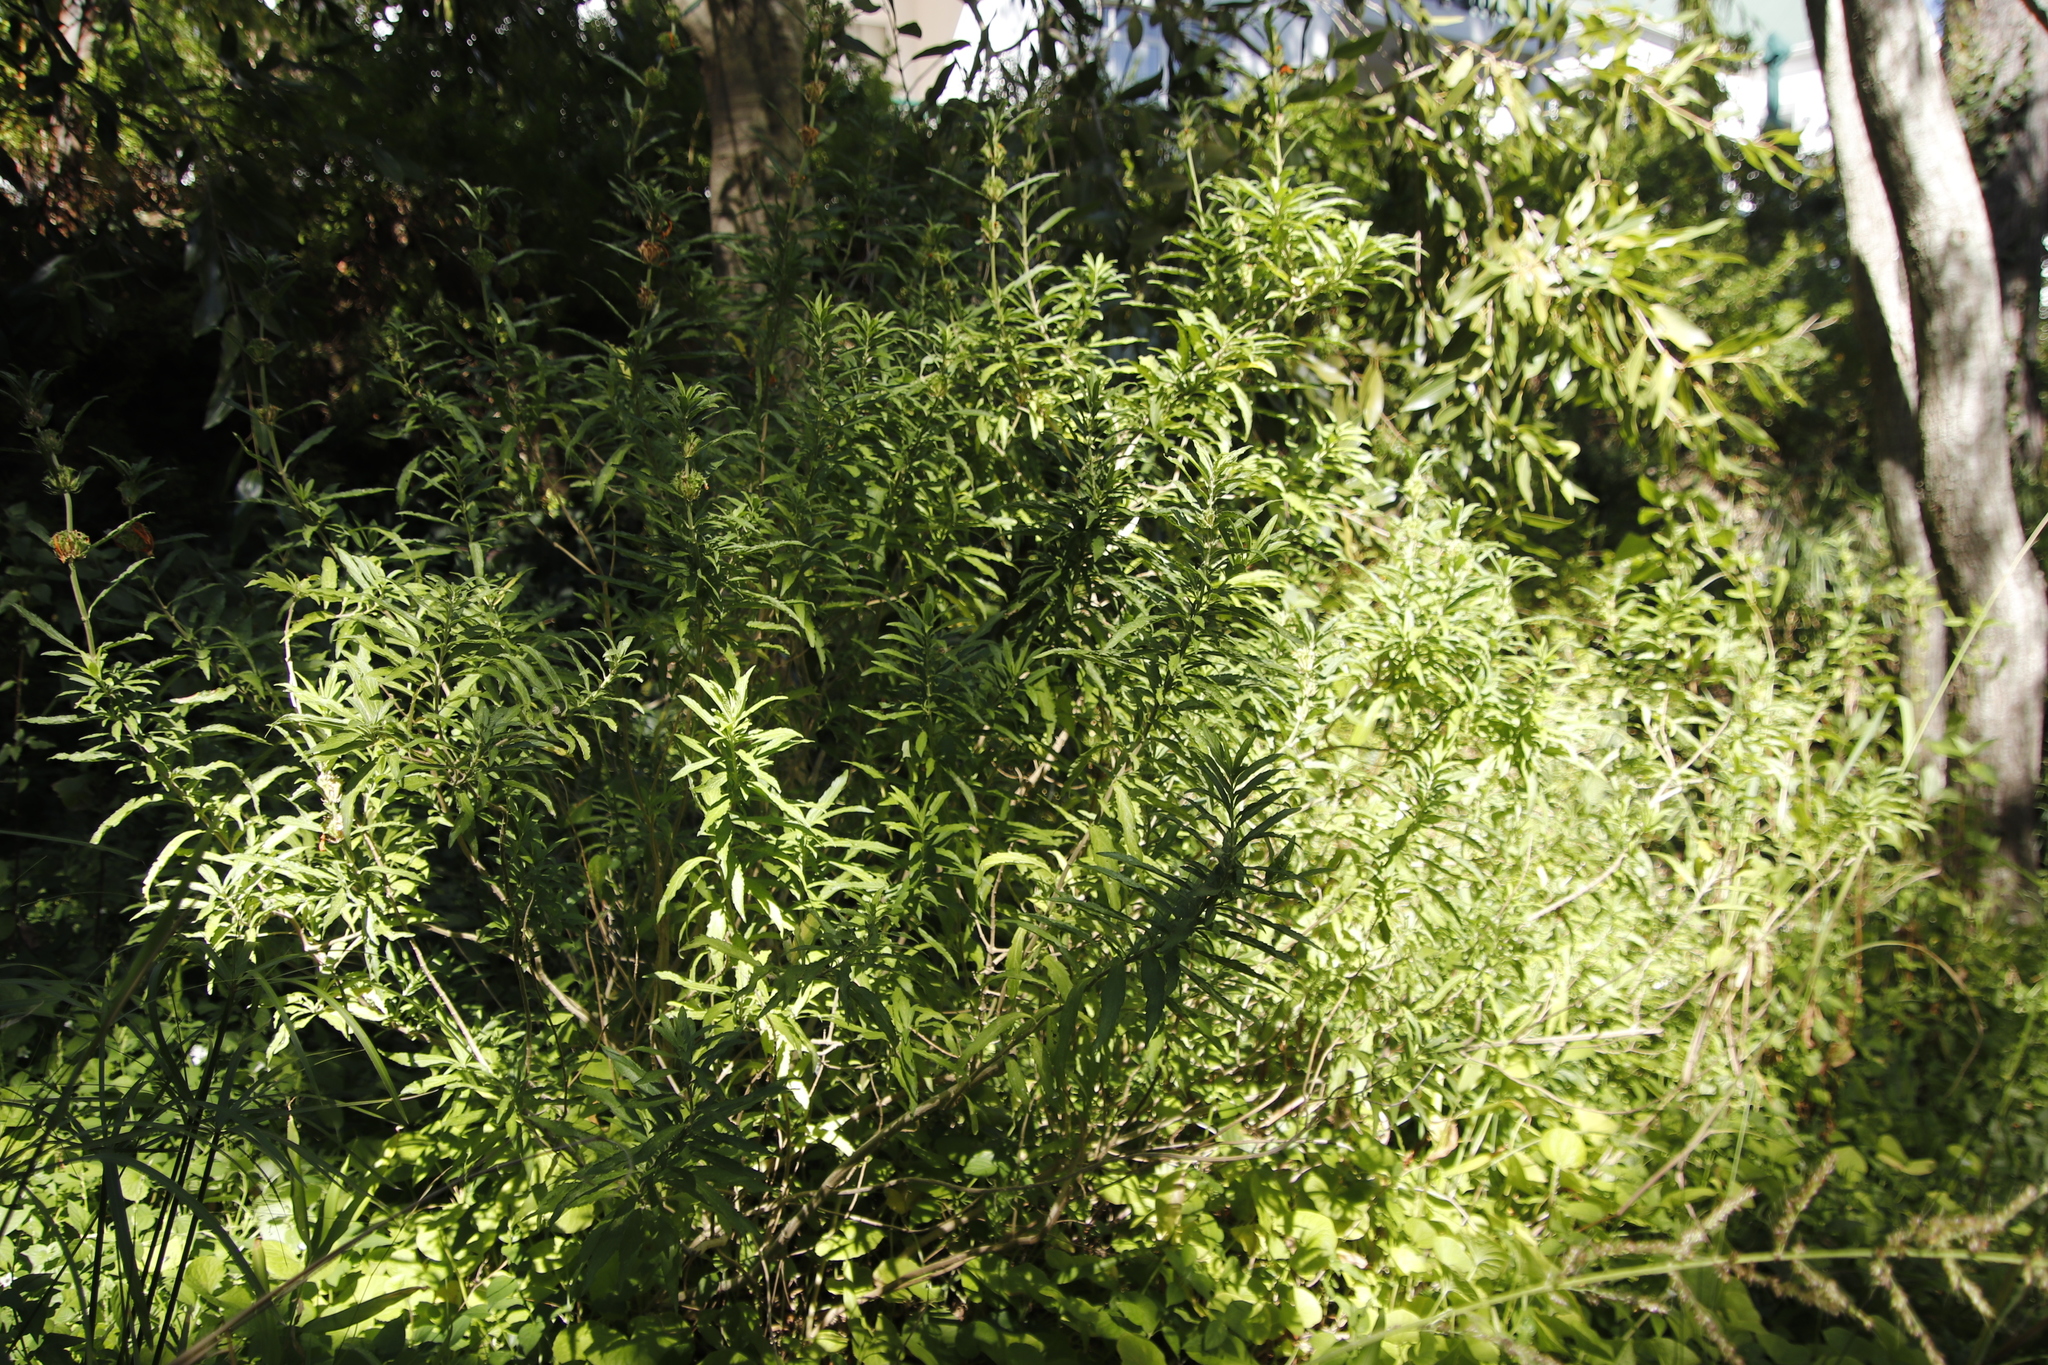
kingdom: Plantae
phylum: Tracheophyta
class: Magnoliopsida
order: Lamiales
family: Lamiaceae
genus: Leonotis
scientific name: Leonotis leonurus
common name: Lion's ear
